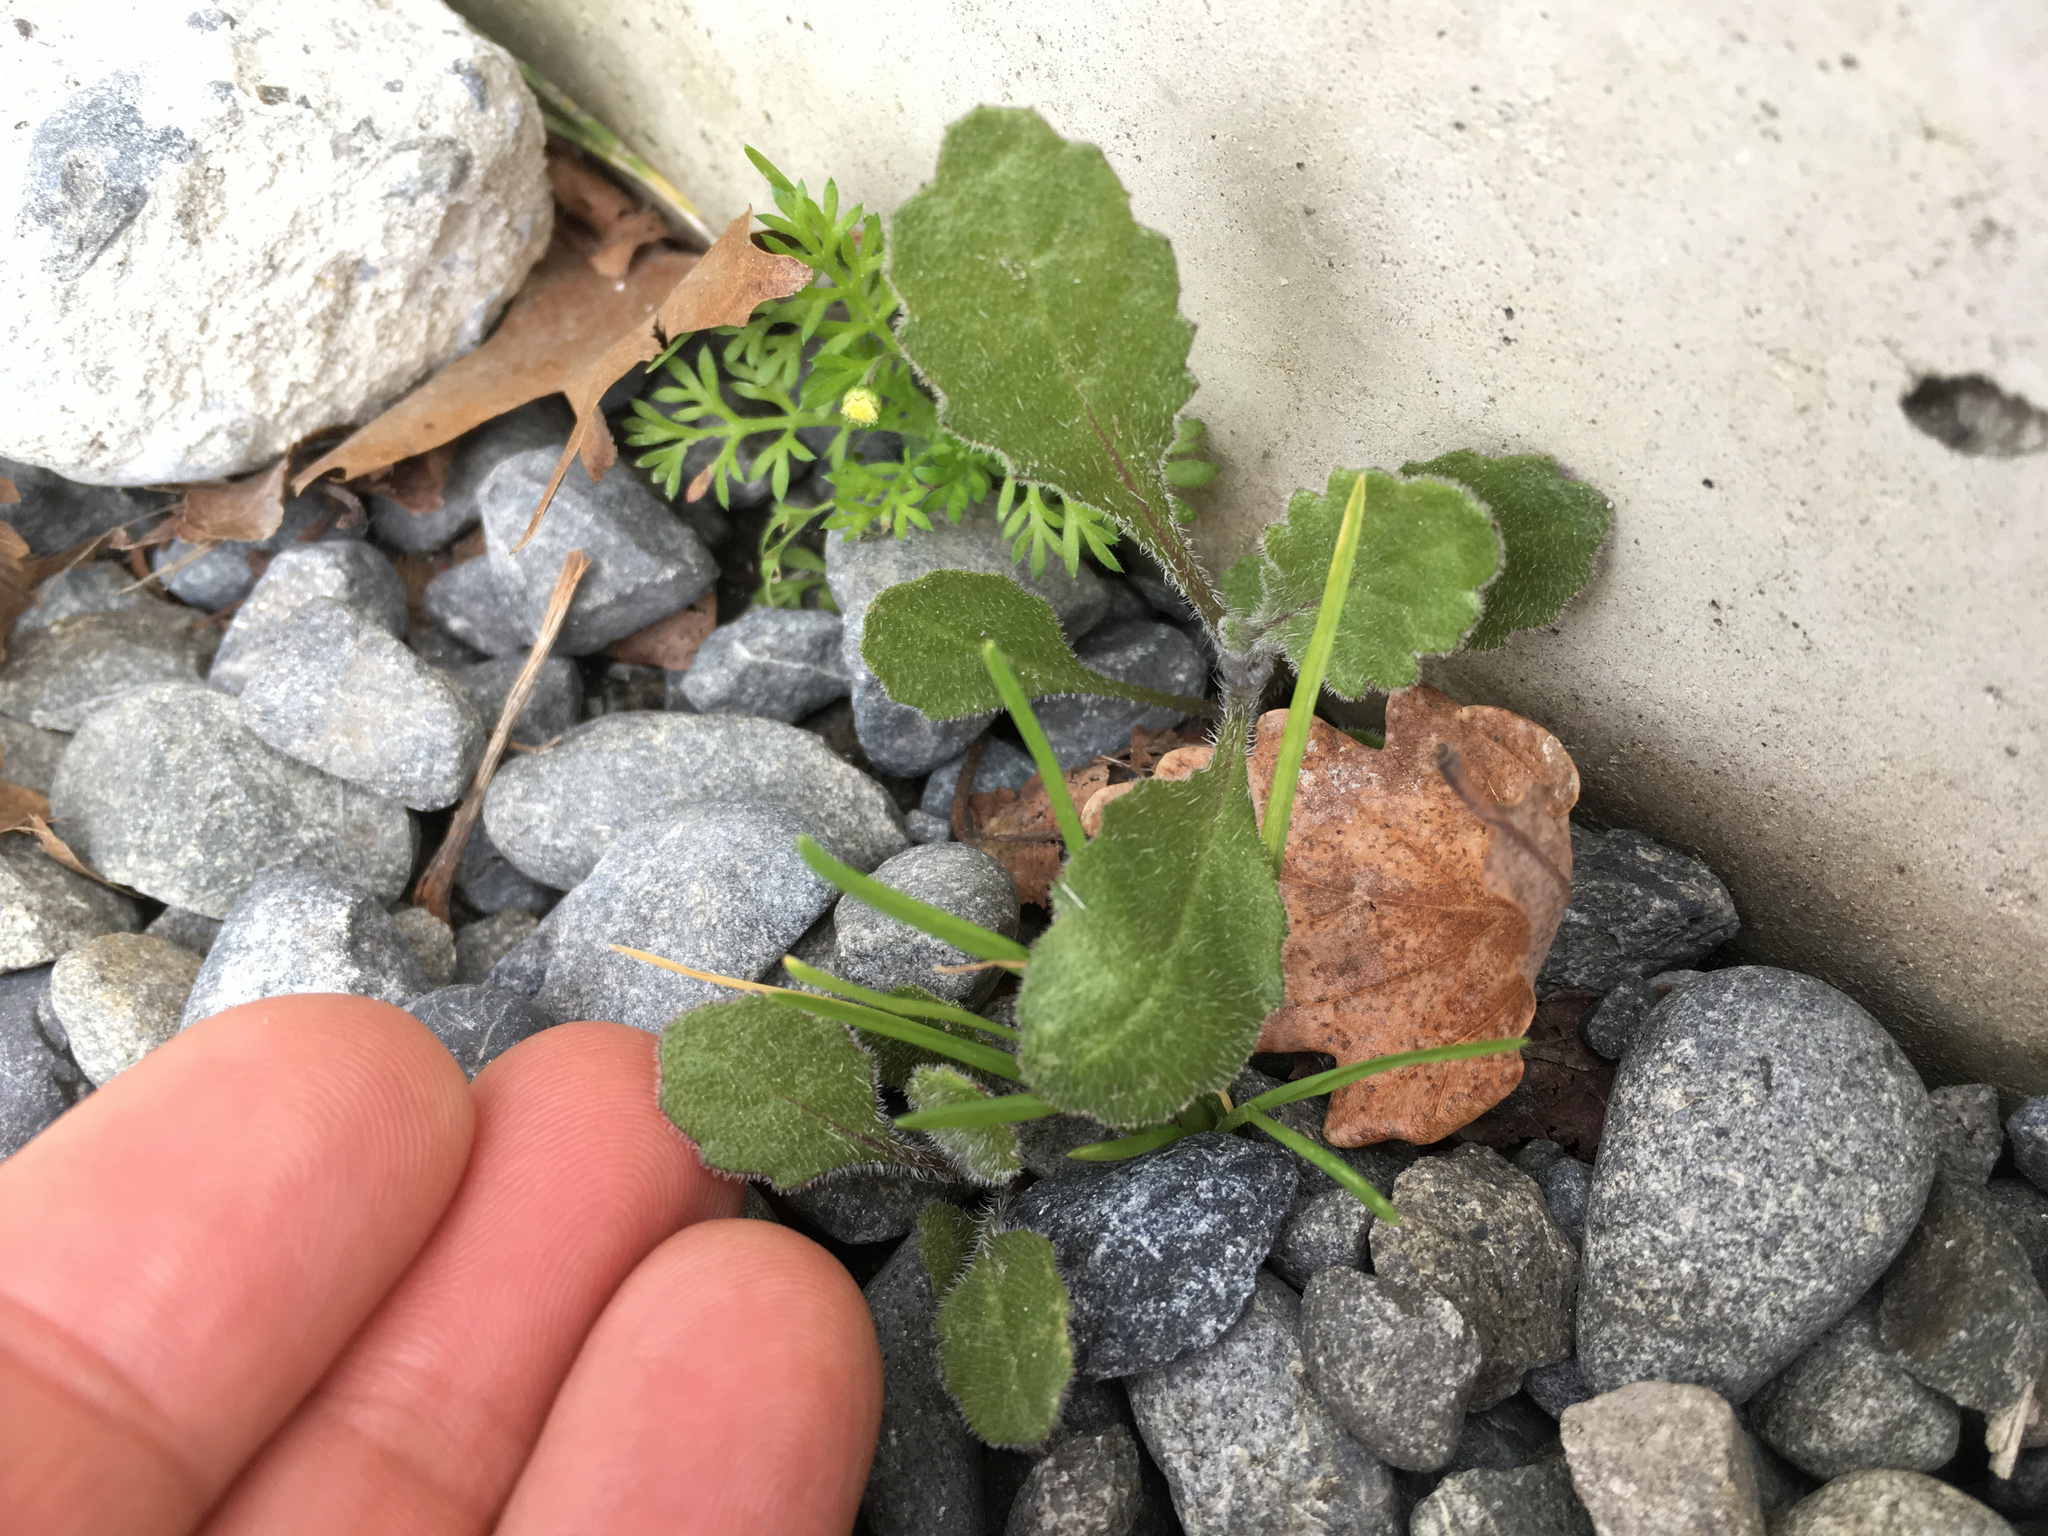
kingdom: Plantae
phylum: Tracheophyta
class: Magnoliopsida
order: Asterales
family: Asteraceae
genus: Senecio
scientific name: Senecio glomeratus
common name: Cutleaf burnweed
